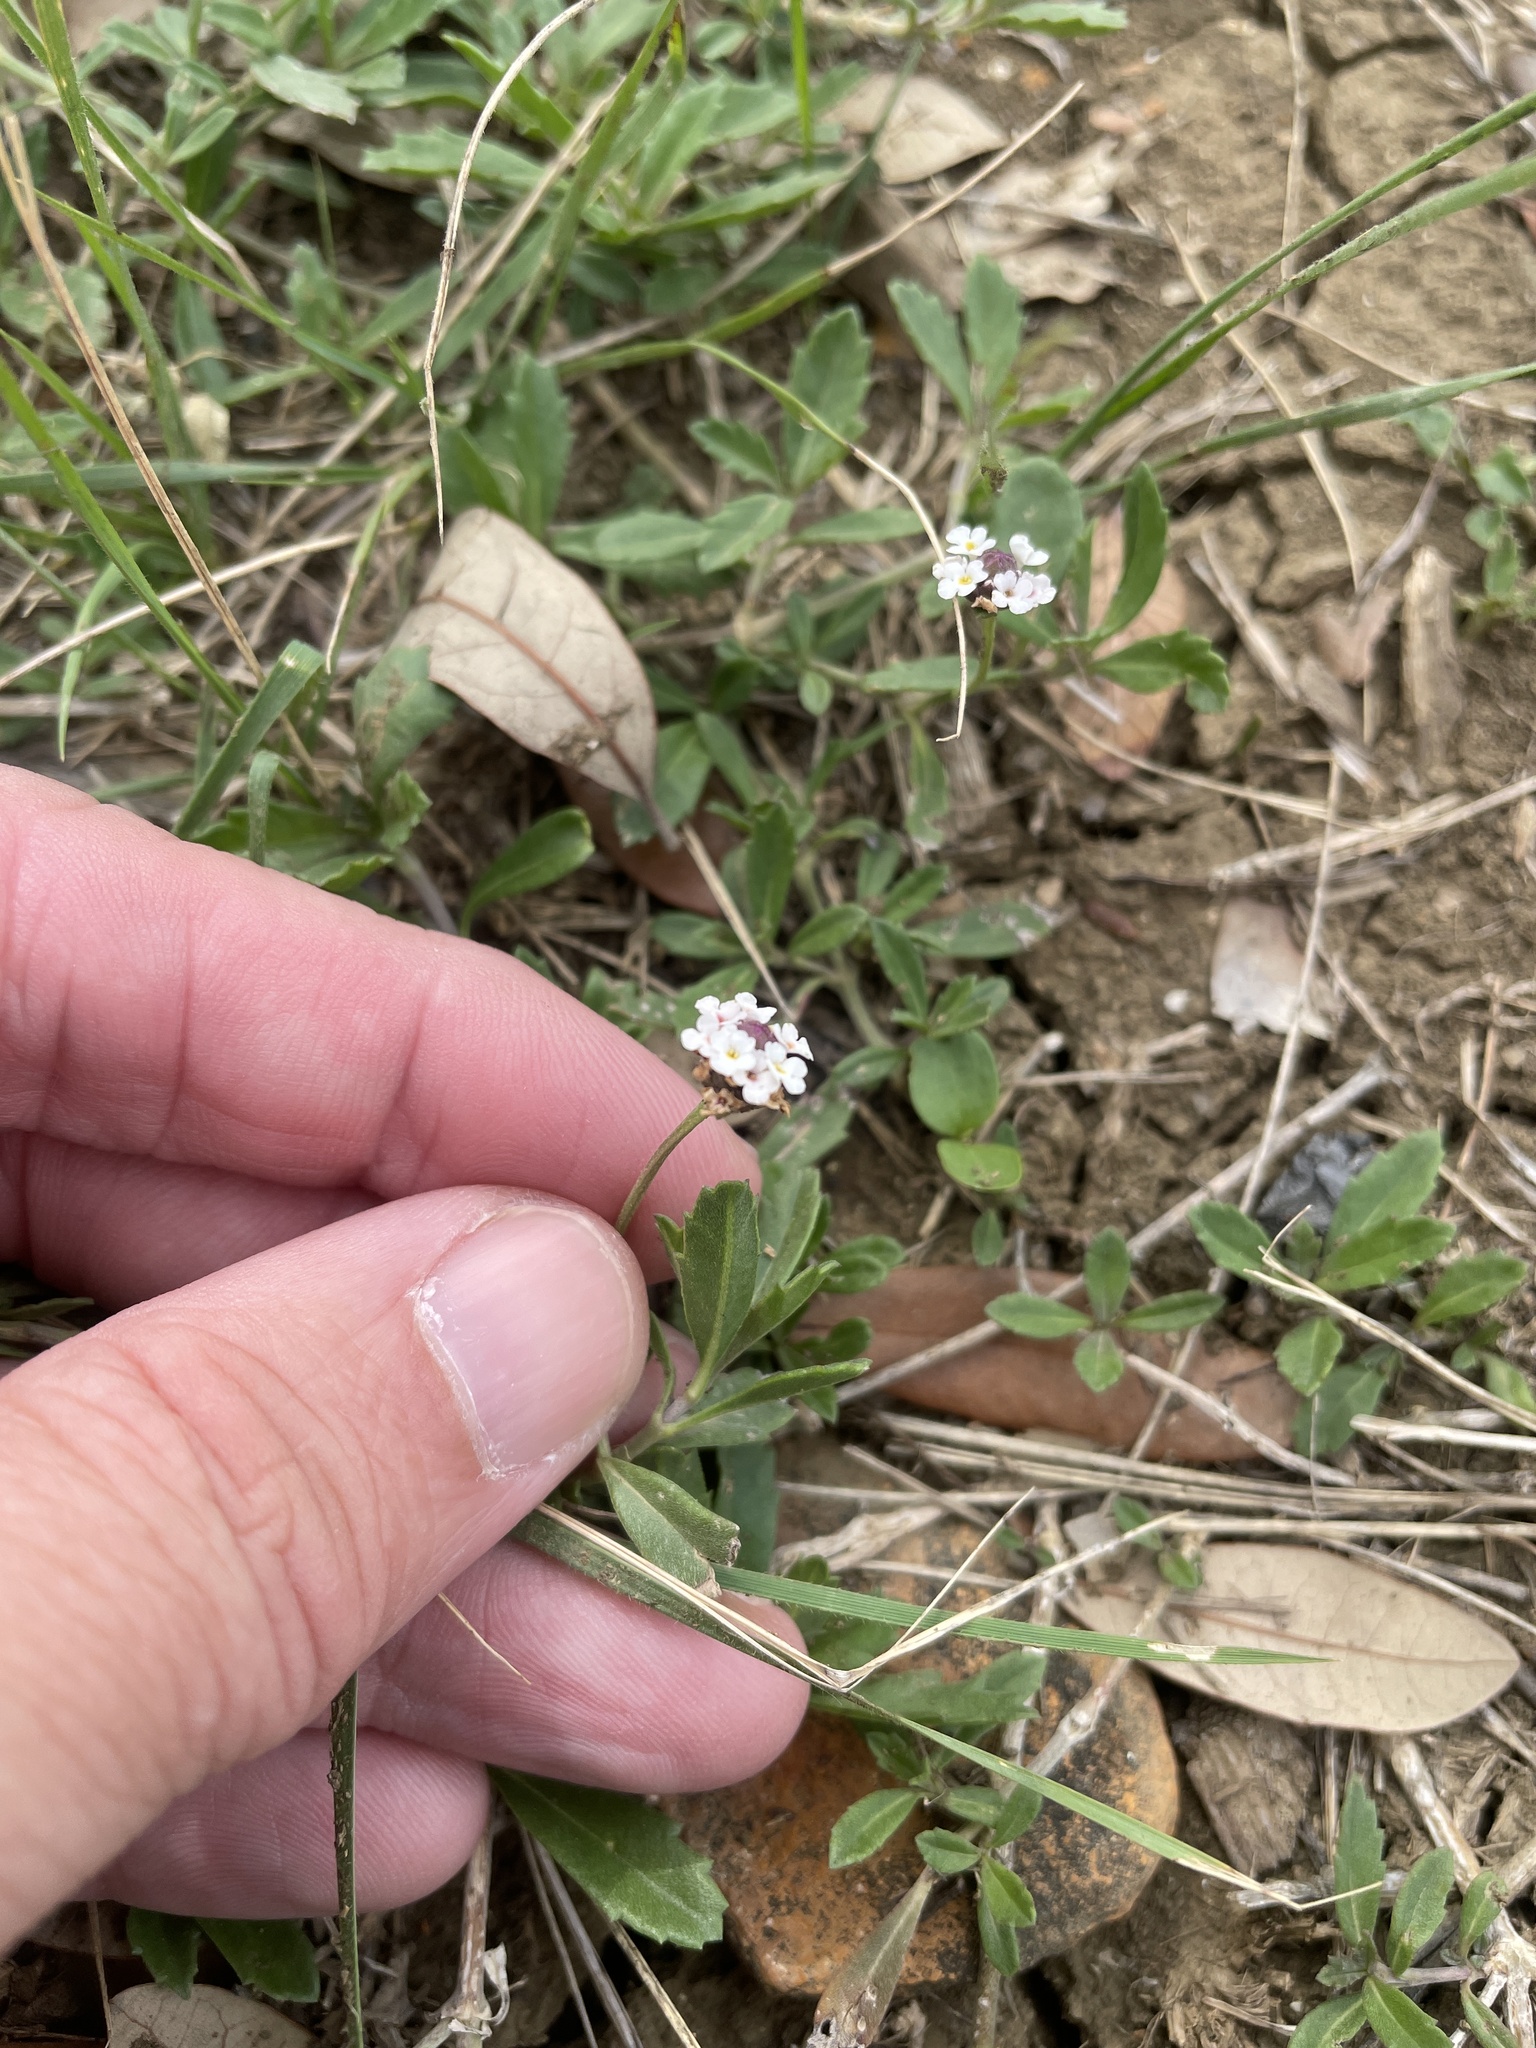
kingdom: Plantae
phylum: Tracheophyta
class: Magnoliopsida
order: Lamiales
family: Verbenaceae
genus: Phyla
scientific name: Phyla nodiflora
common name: Frogfruit
